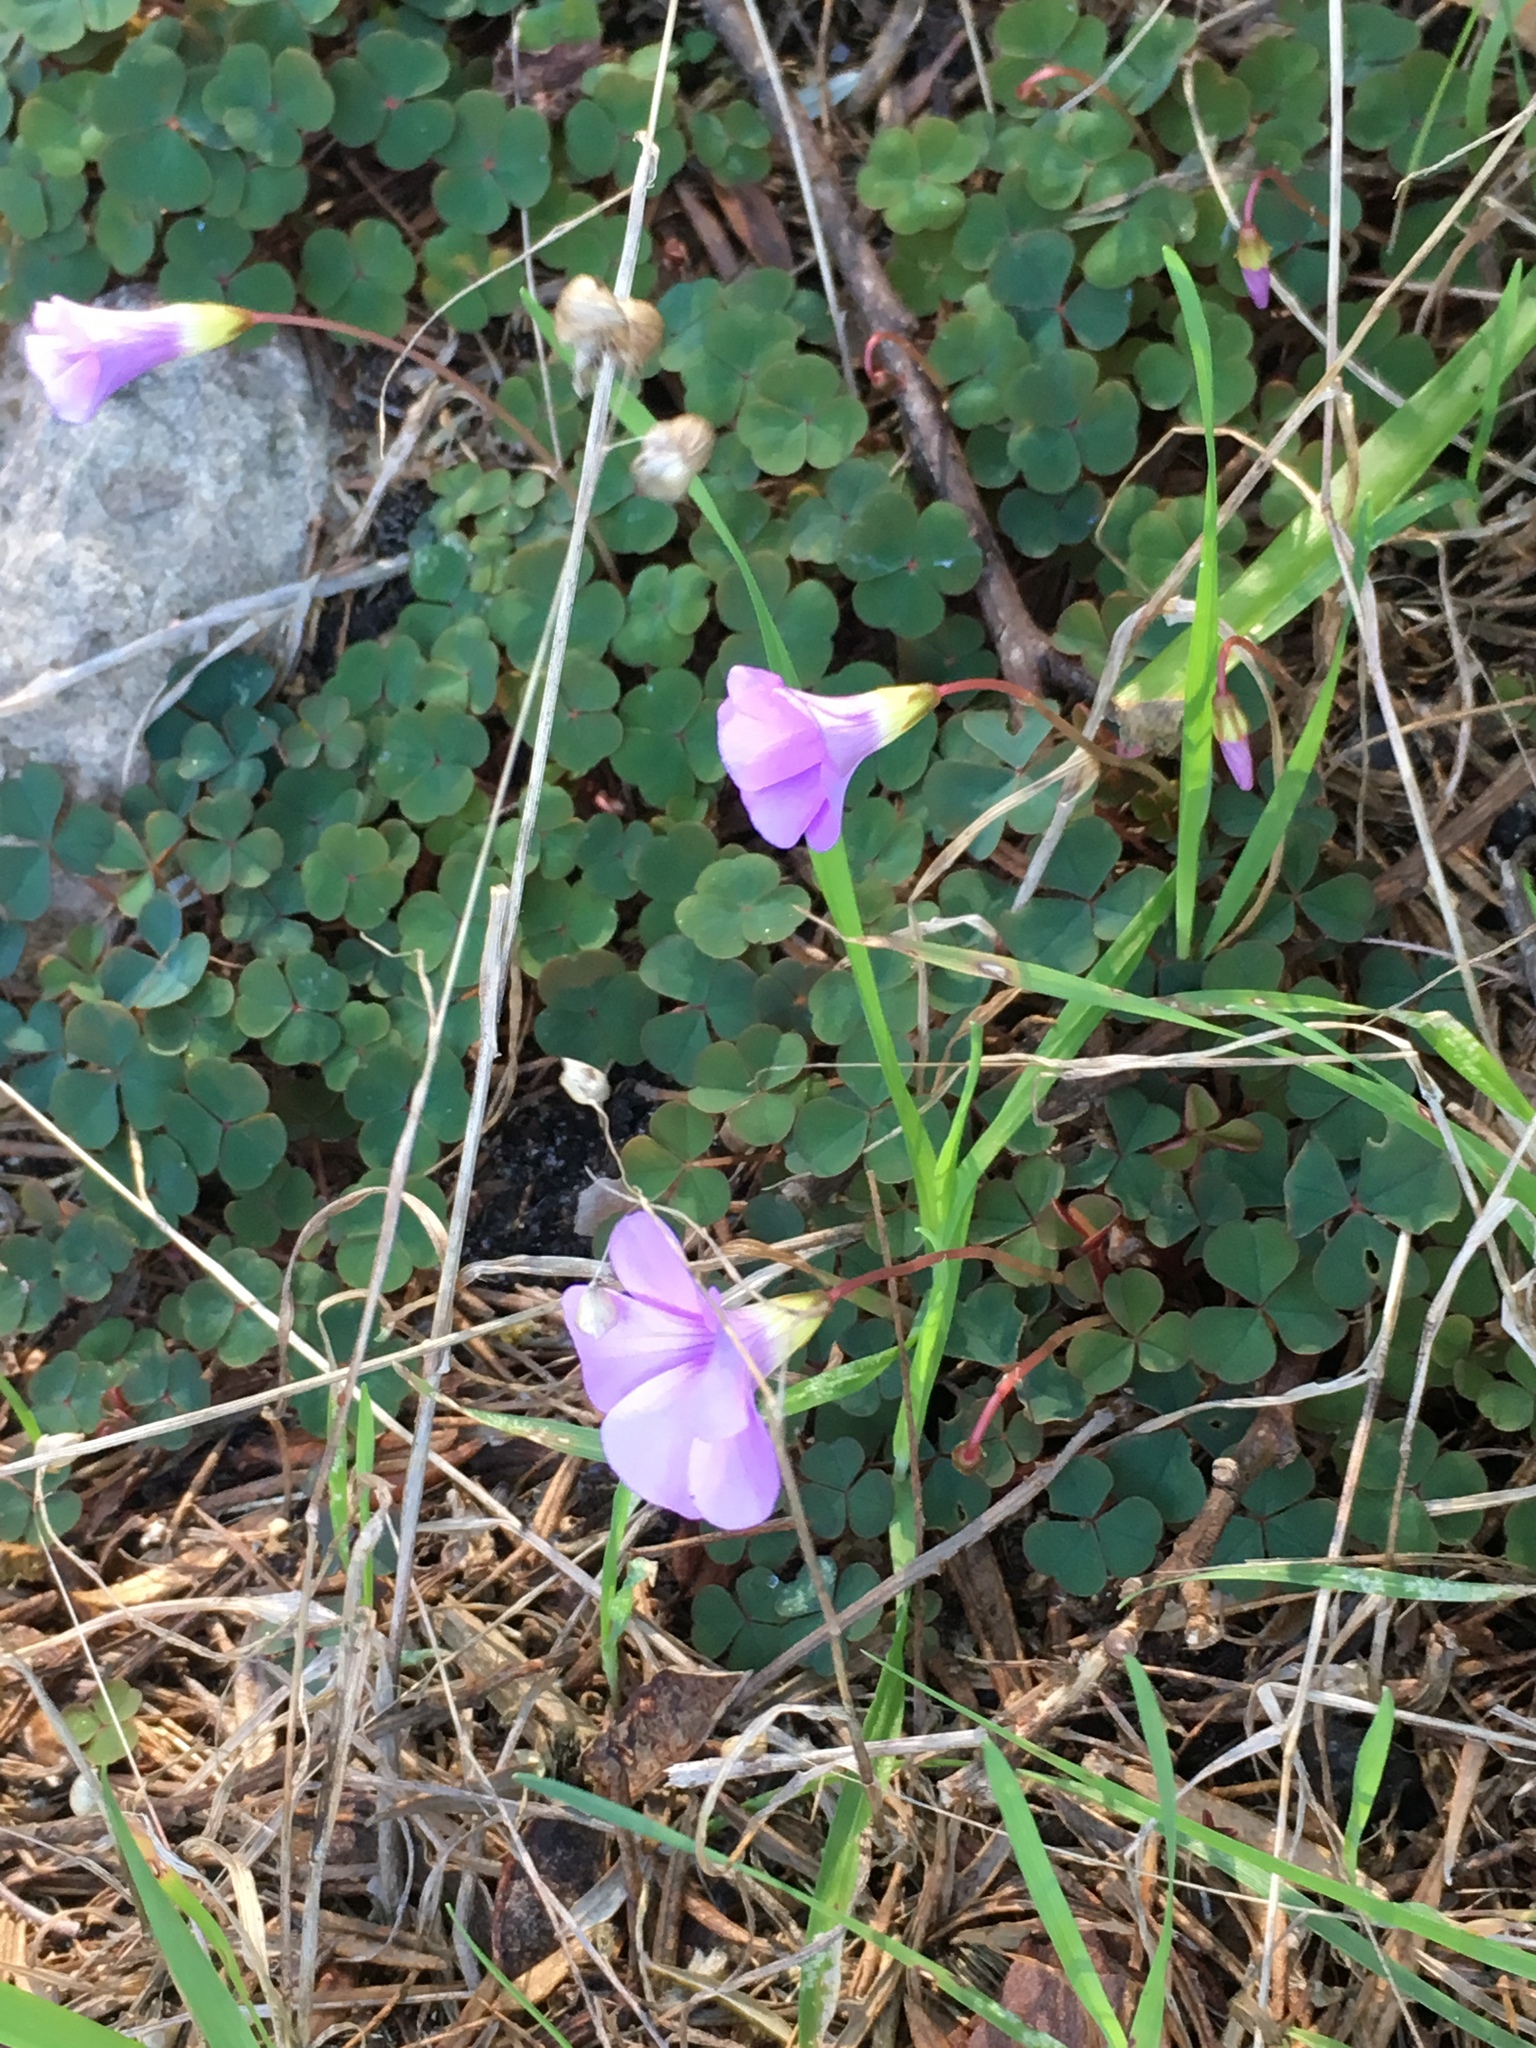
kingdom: Plantae
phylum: Tracheophyta
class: Magnoliopsida
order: Oxalidales
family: Oxalidaceae
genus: Oxalis
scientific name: Oxalis commutata
